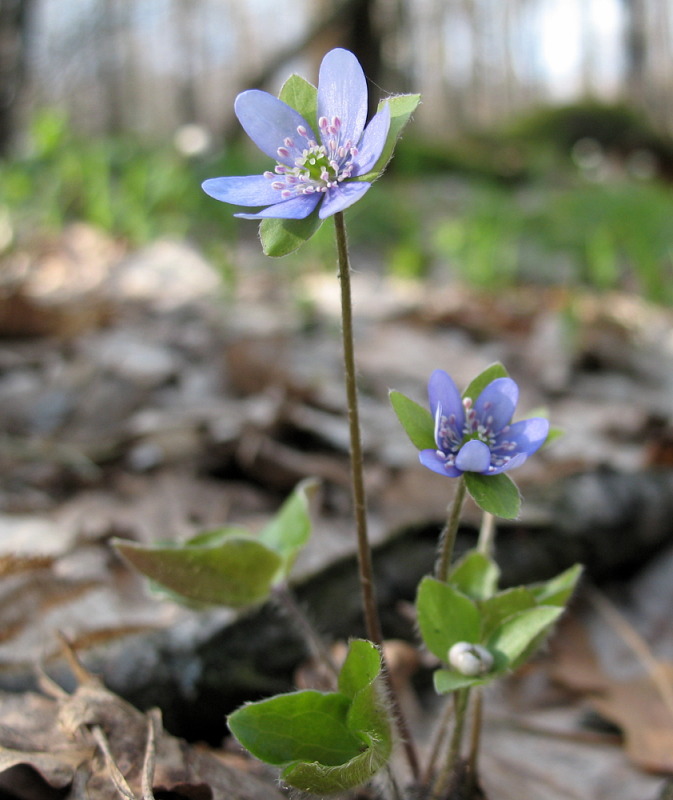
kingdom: Plantae
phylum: Tracheophyta
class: Magnoliopsida
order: Ranunculales
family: Ranunculaceae
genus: Hepatica
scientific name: Hepatica nobilis
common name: Liverleaf
